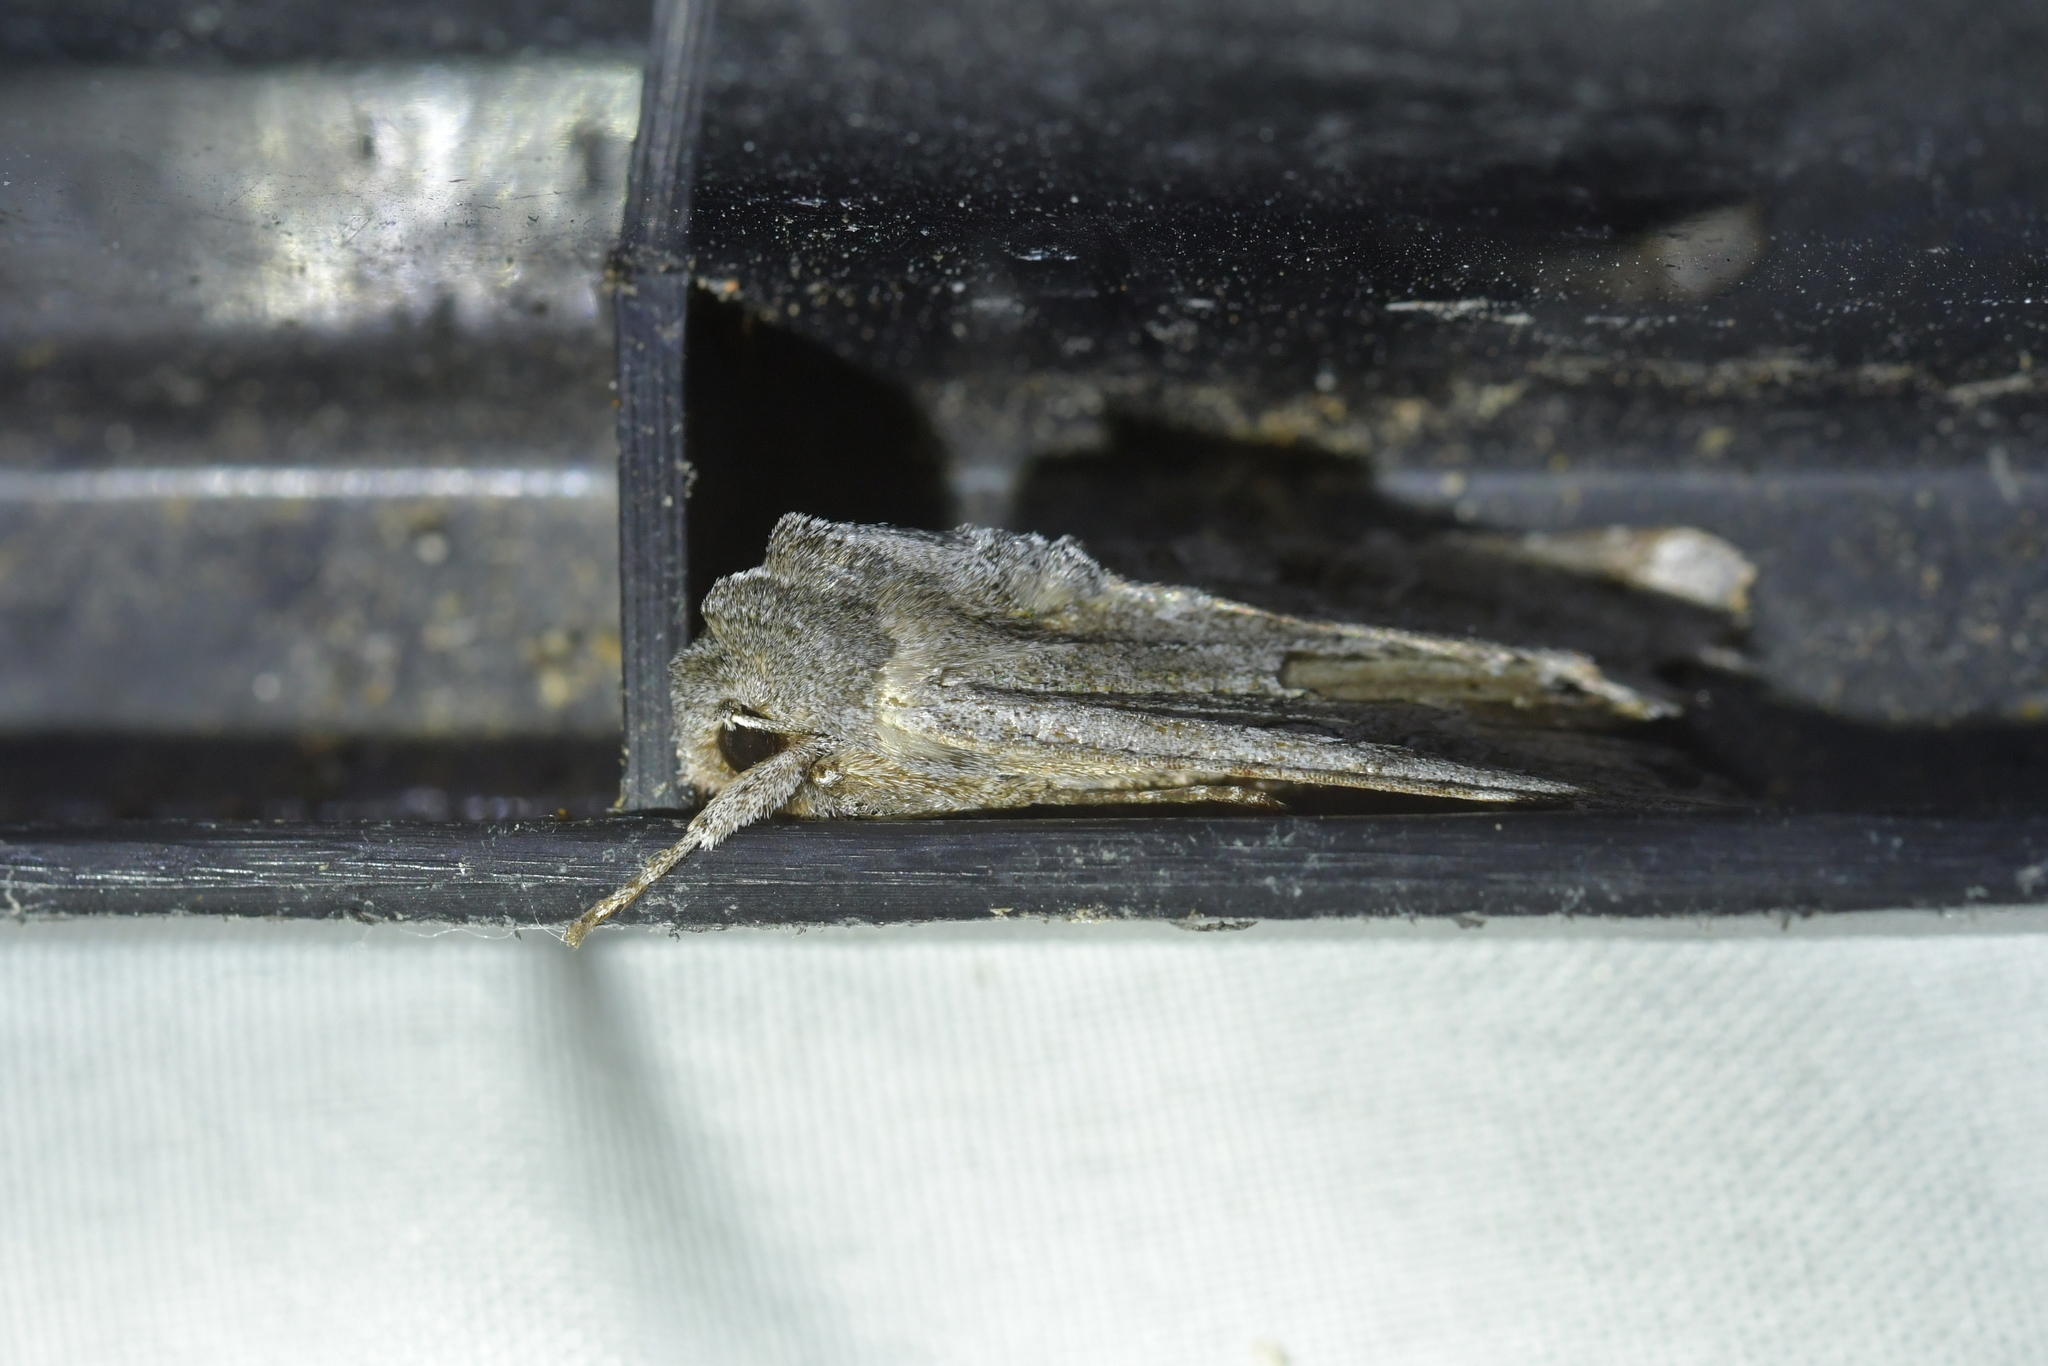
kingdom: Animalia
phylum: Arthropoda
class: Insecta
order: Lepidoptera
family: Noctuidae
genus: Ichneutica
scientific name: Ichneutica
